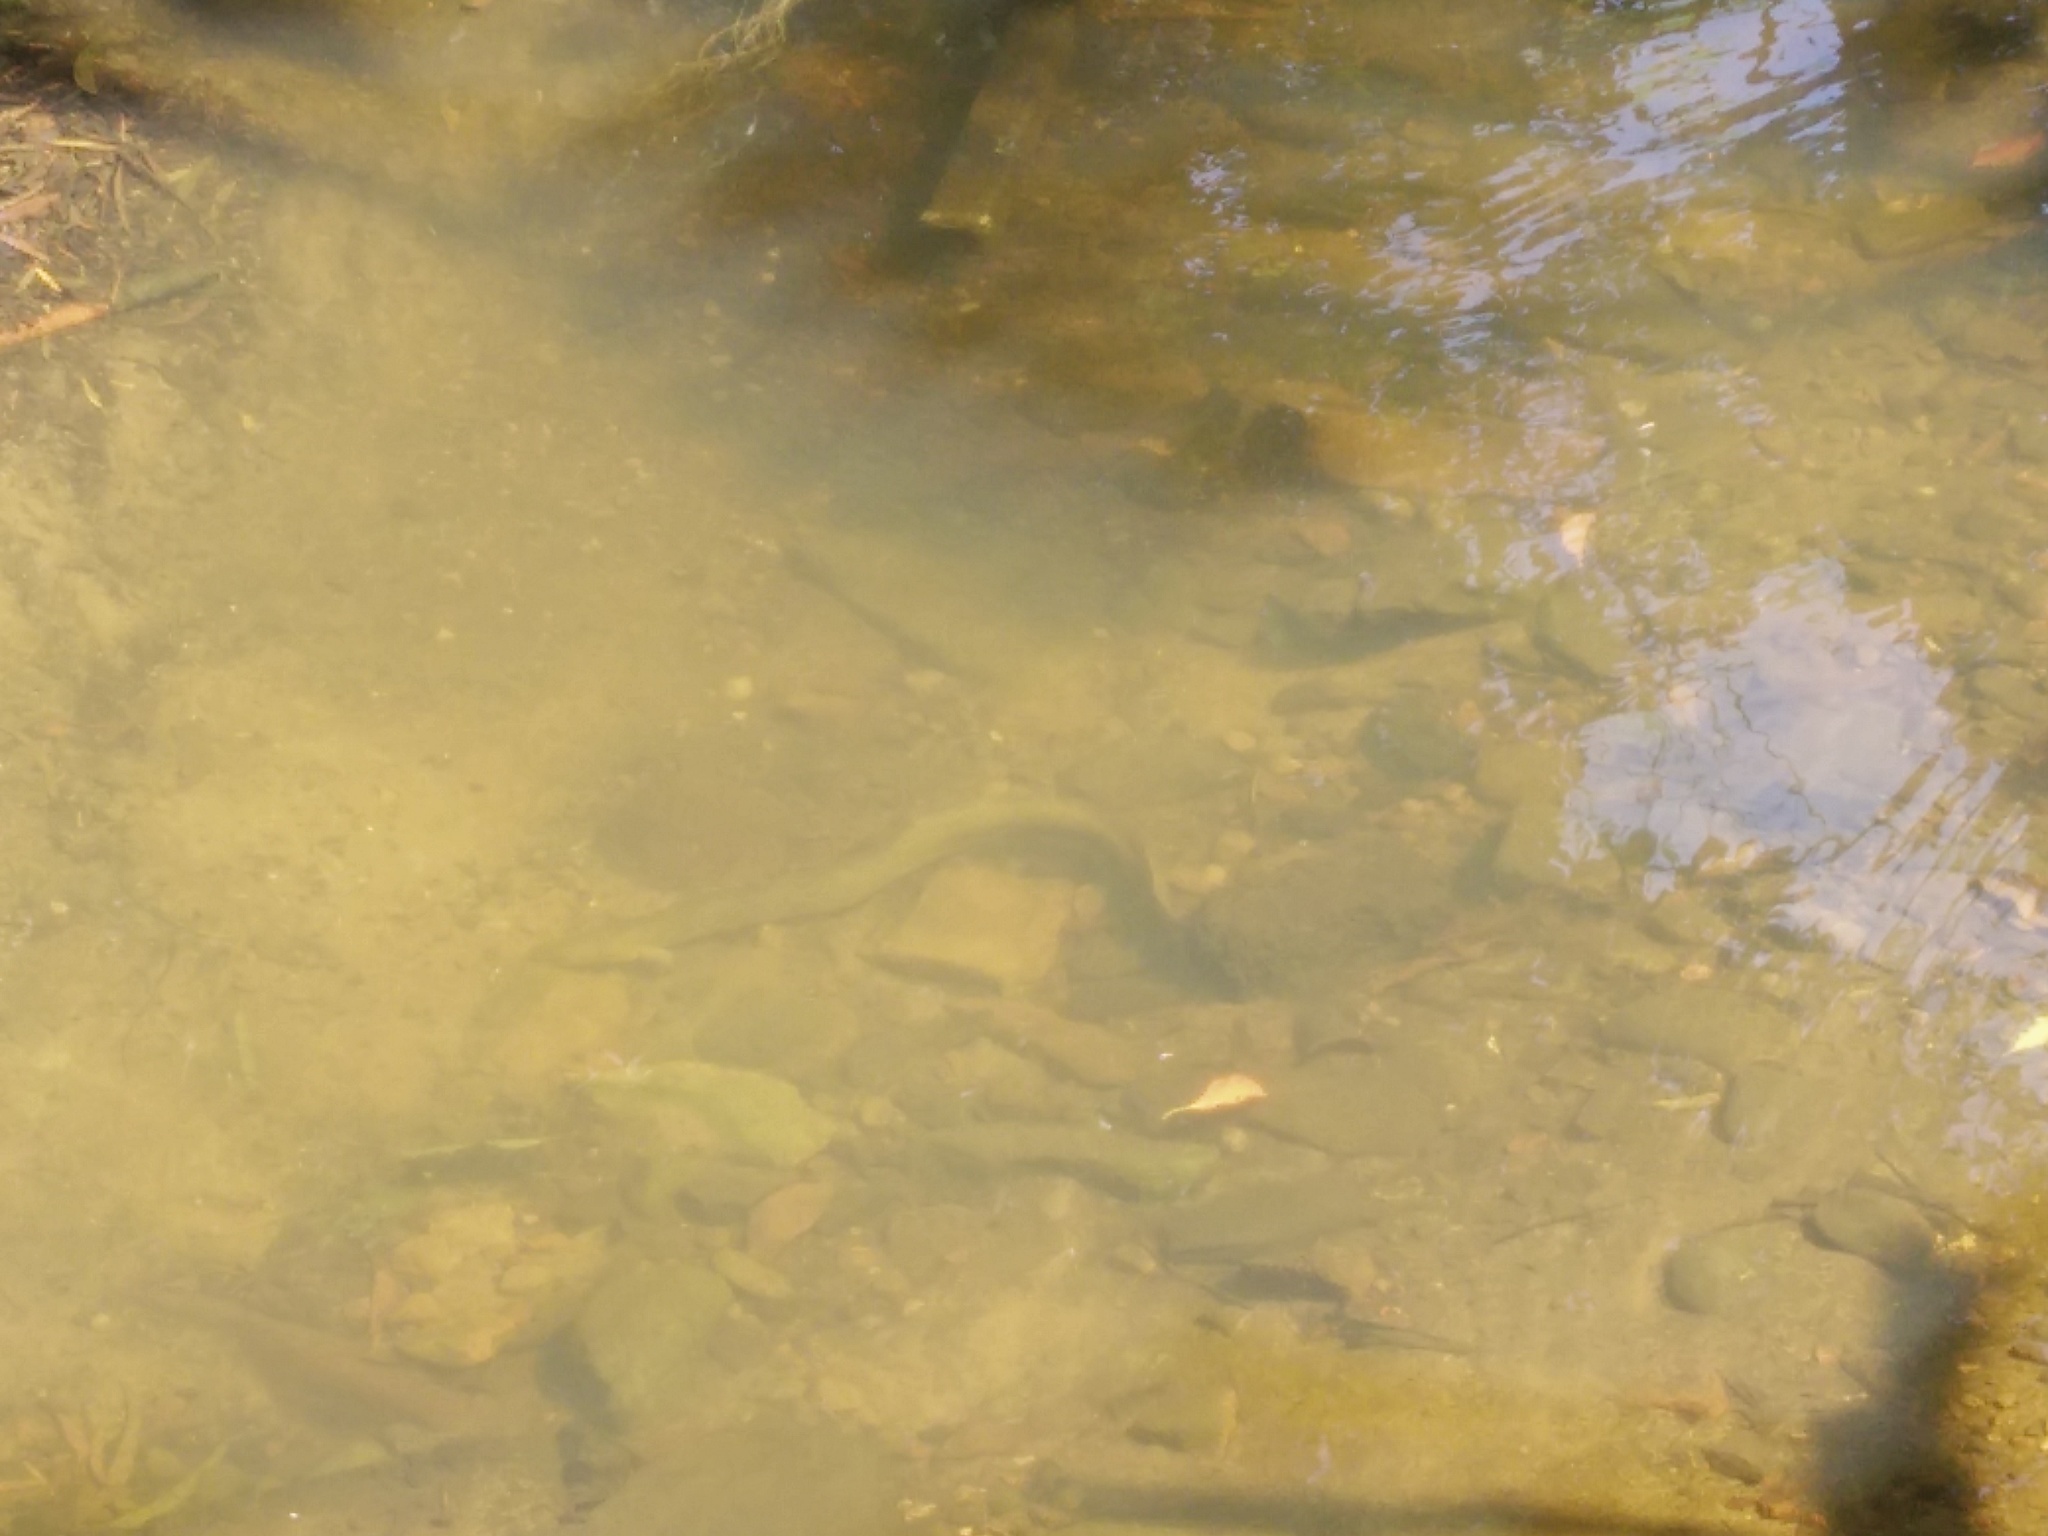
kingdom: Animalia
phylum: Chordata
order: Anguilliformes
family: Anguillidae
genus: Anguilla
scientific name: Anguilla australis
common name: Shortfin eel
